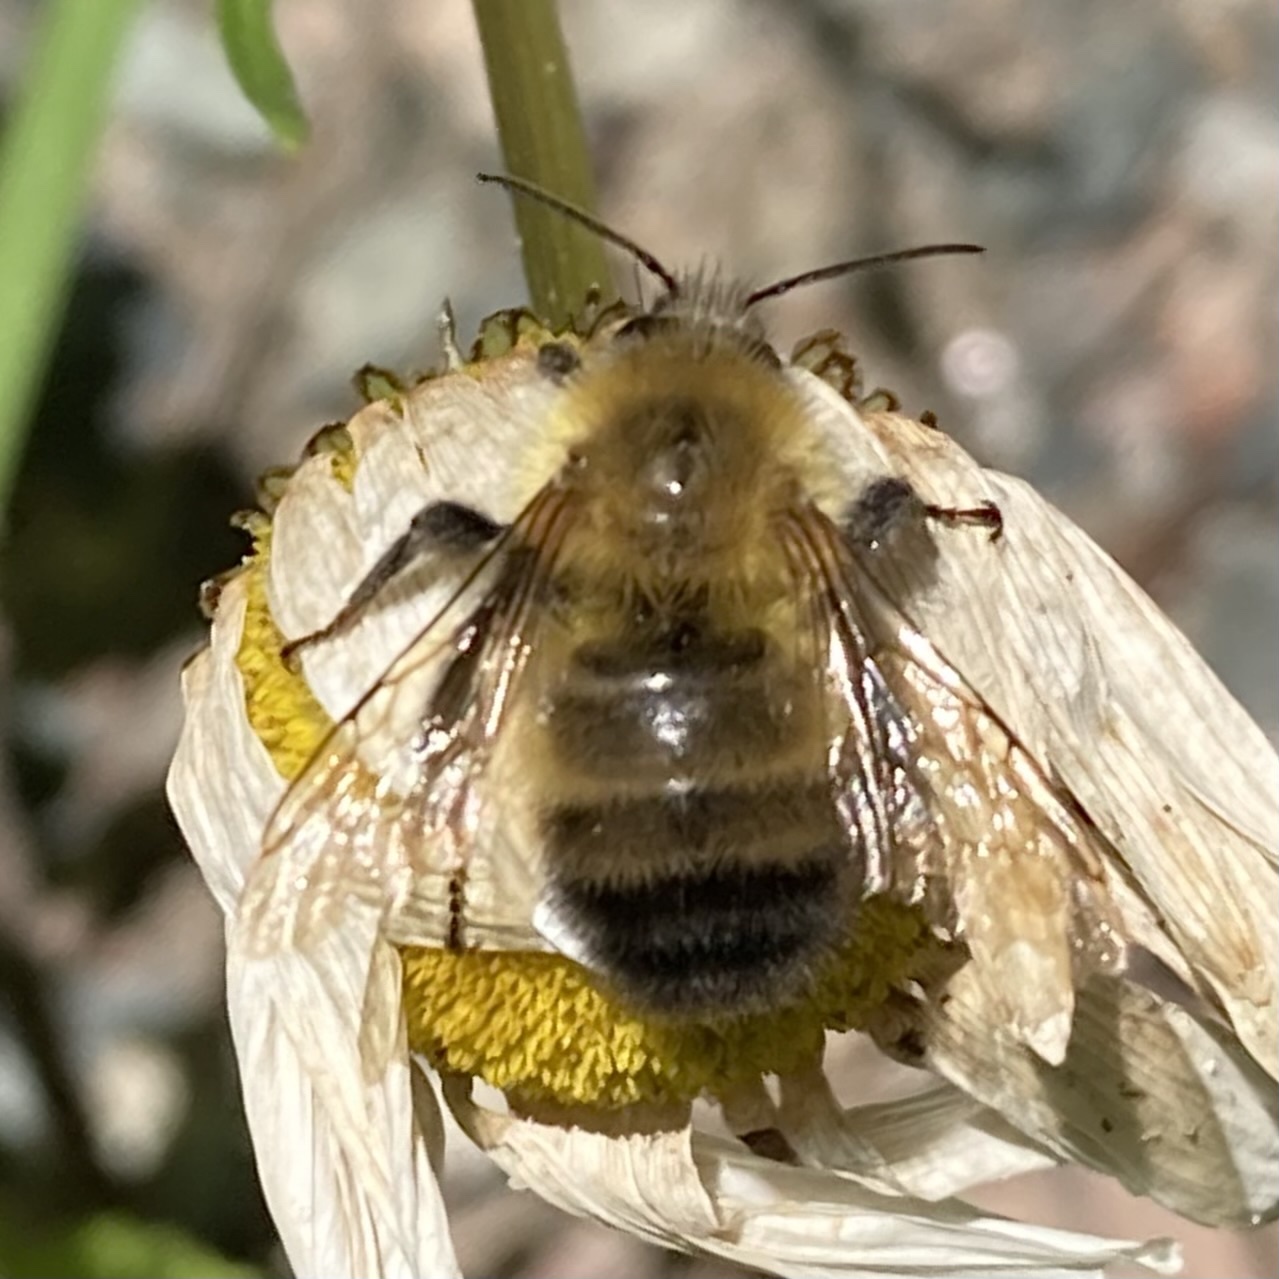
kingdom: Animalia
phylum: Arthropoda
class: Insecta
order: Hymenoptera
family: Apidae
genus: Bombus
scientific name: Bombus perplexus
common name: Confusing bumble bee
